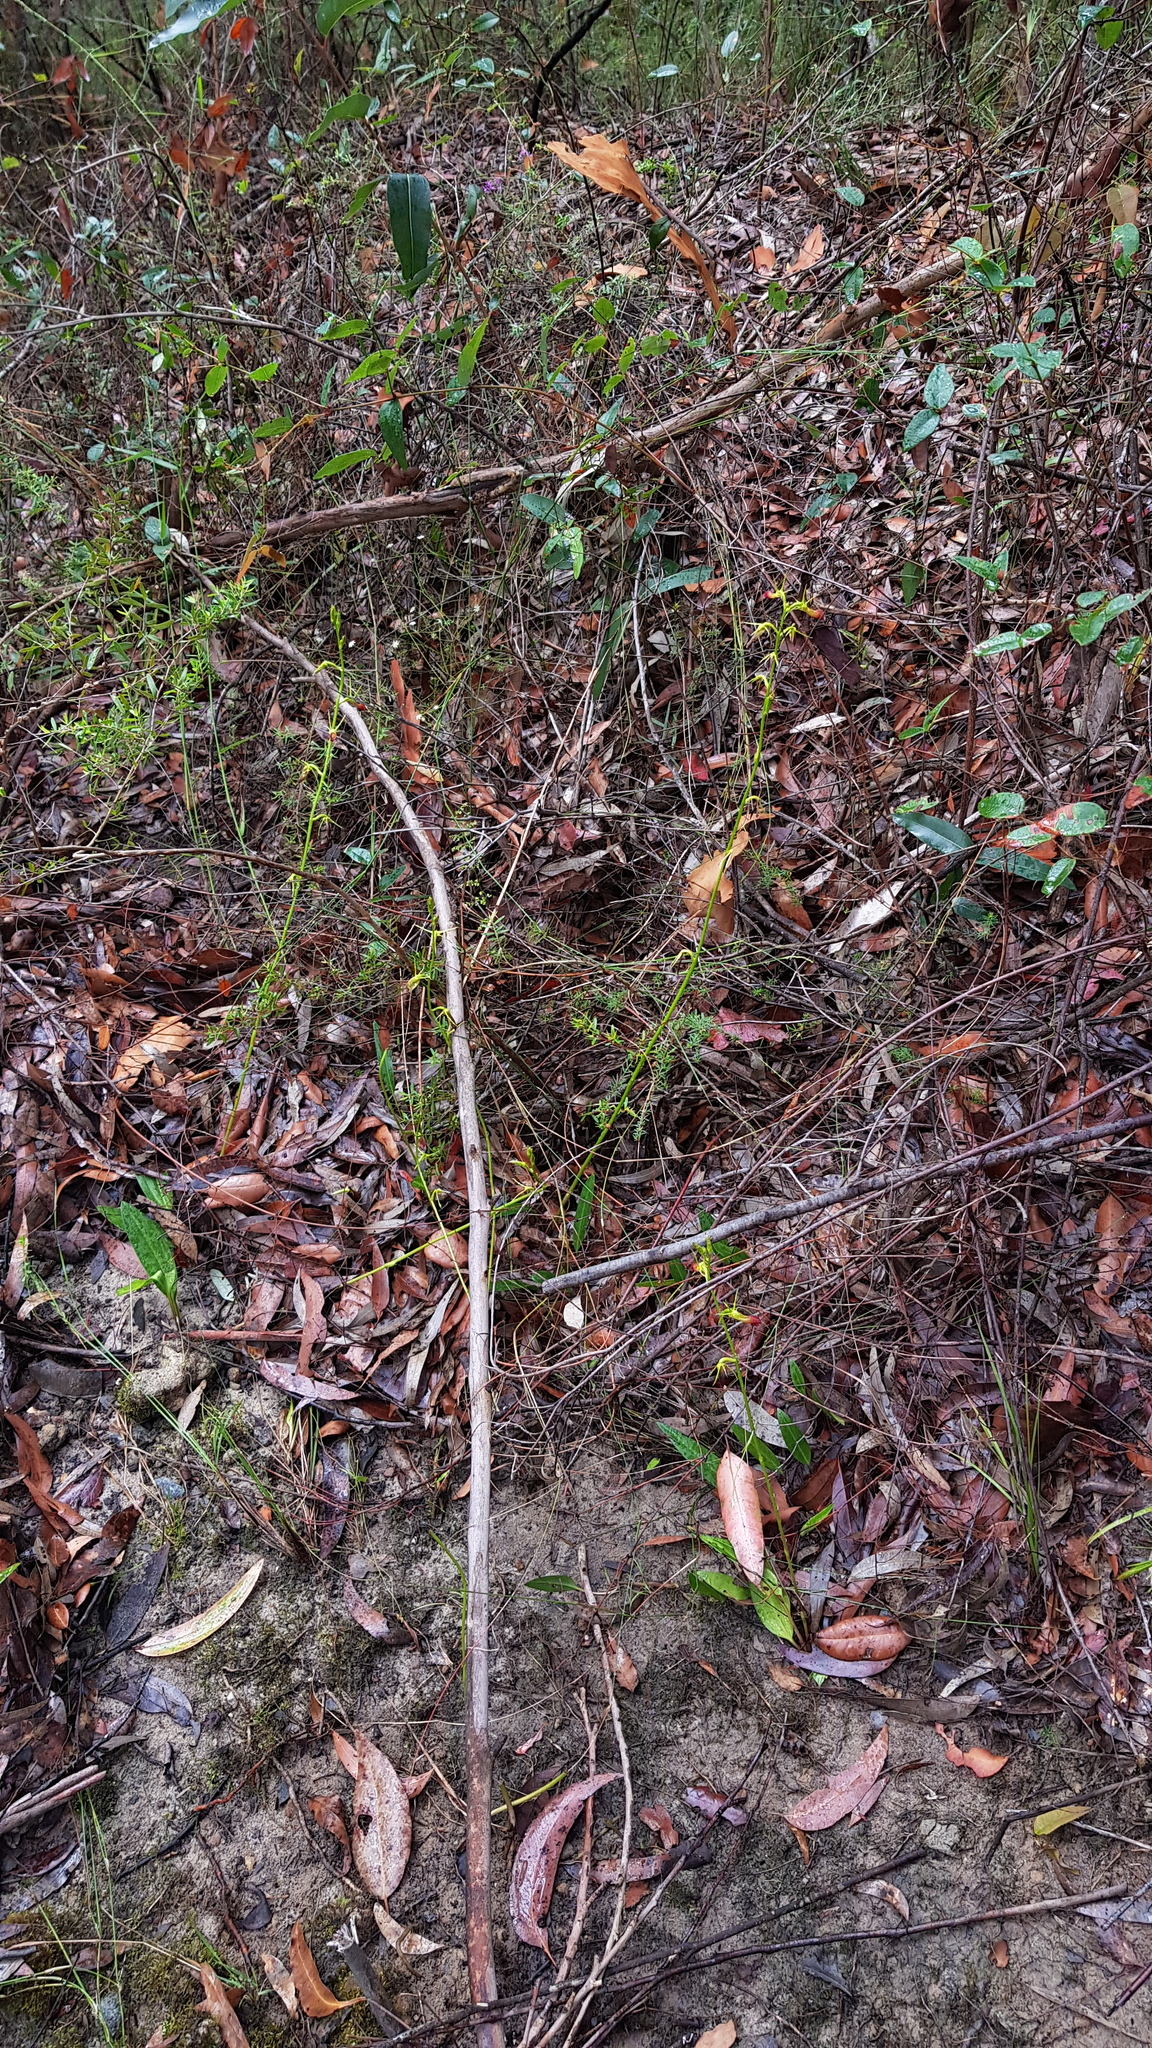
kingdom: Plantae
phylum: Tracheophyta
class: Liliopsida
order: Asparagales
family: Orchidaceae
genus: Cryptostylis
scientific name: Cryptostylis subulata
